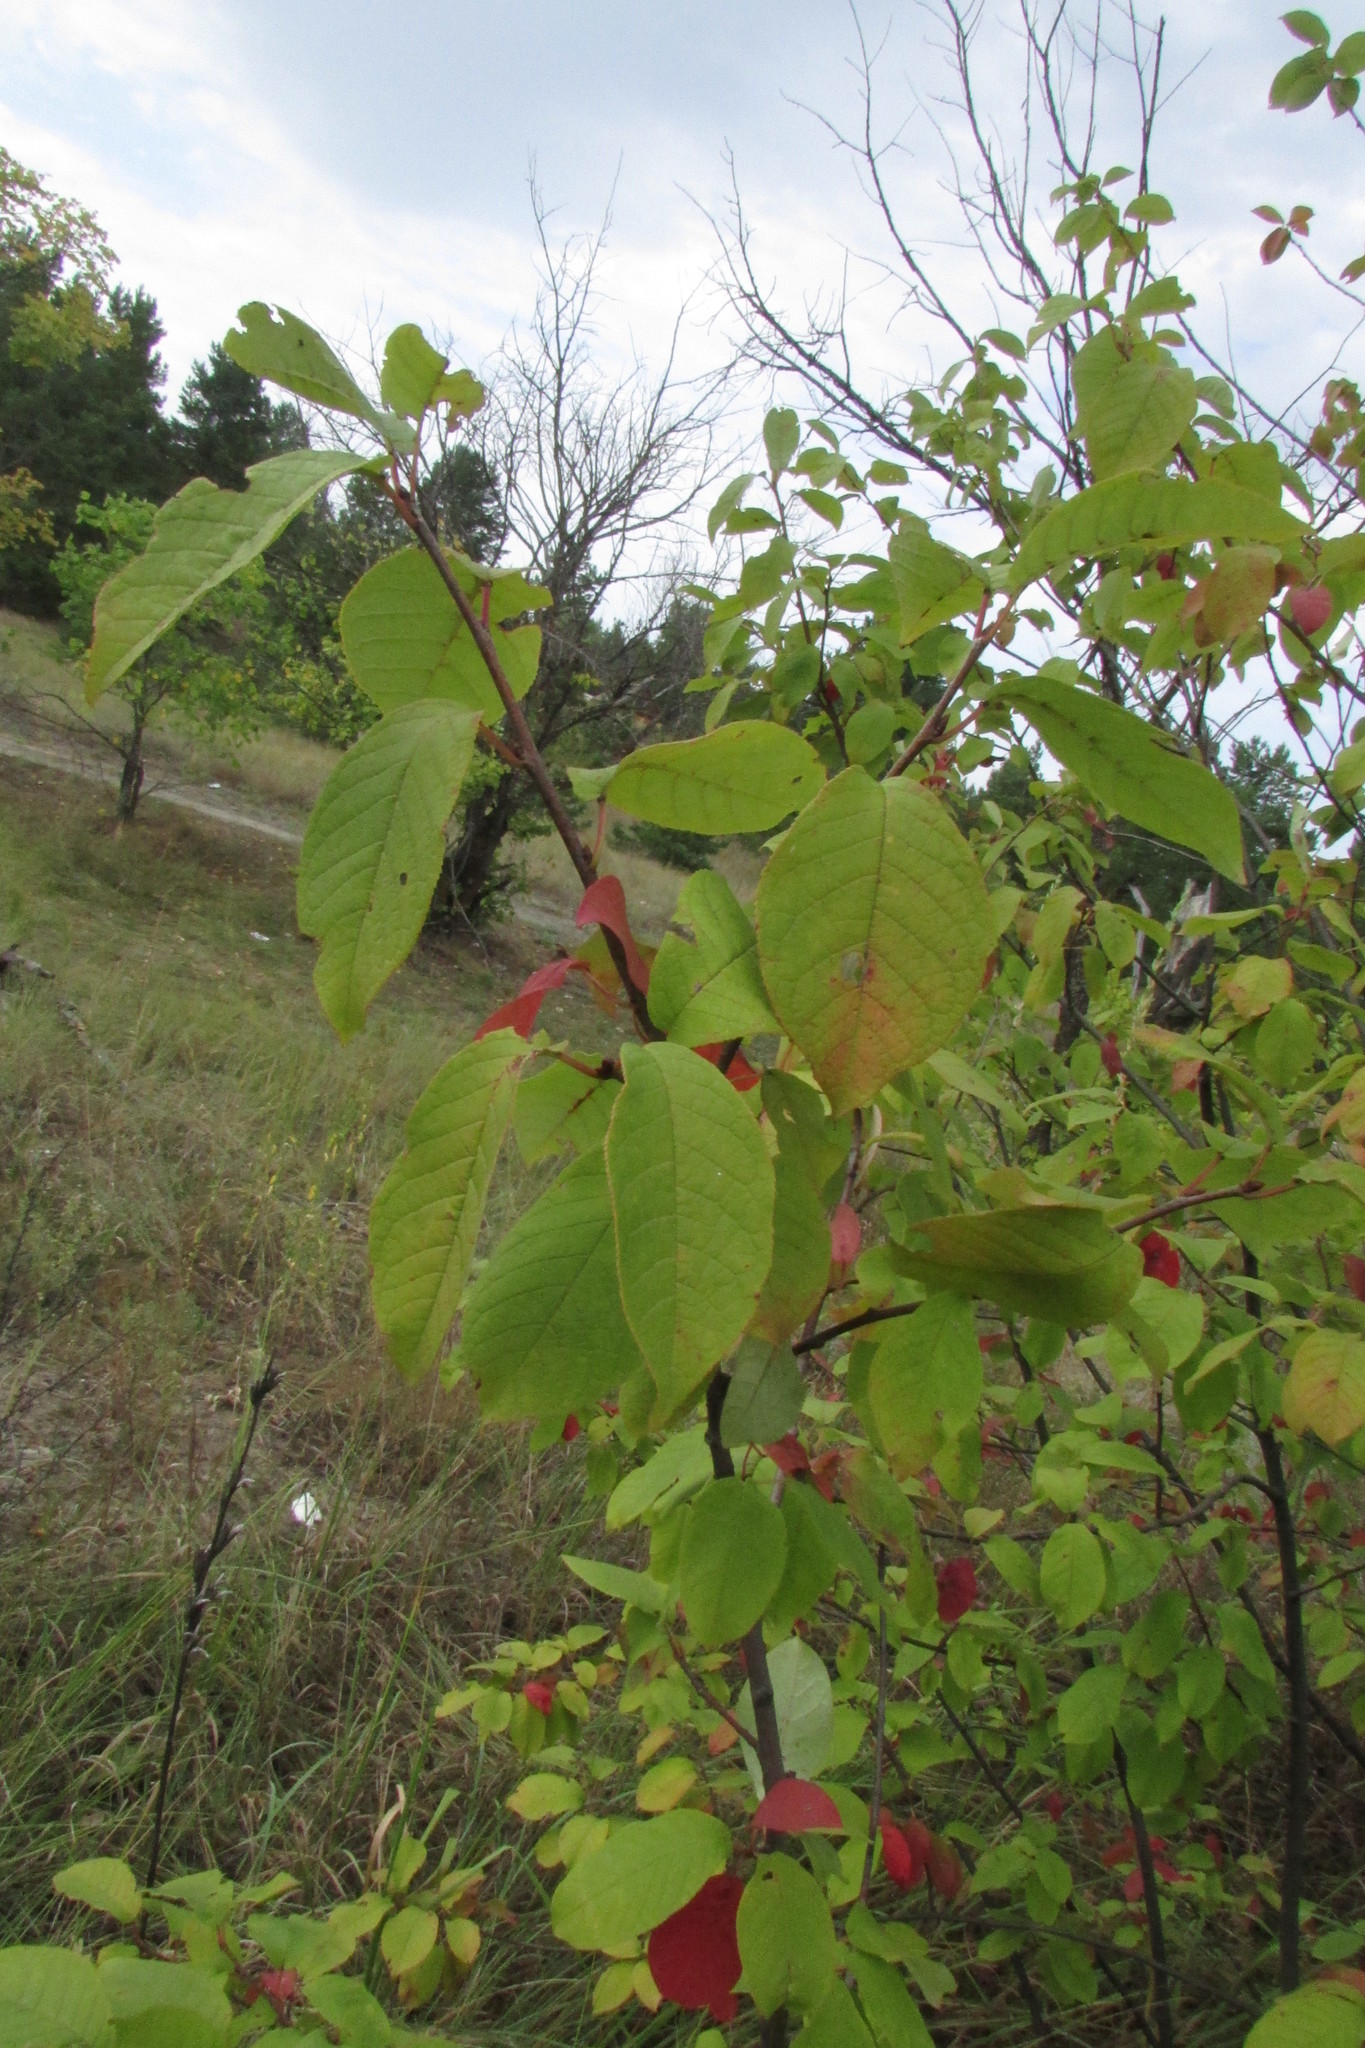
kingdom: Plantae
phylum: Tracheophyta
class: Magnoliopsida
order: Rosales
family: Rosaceae
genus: Prunus
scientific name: Prunus padus
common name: Bird cherry
